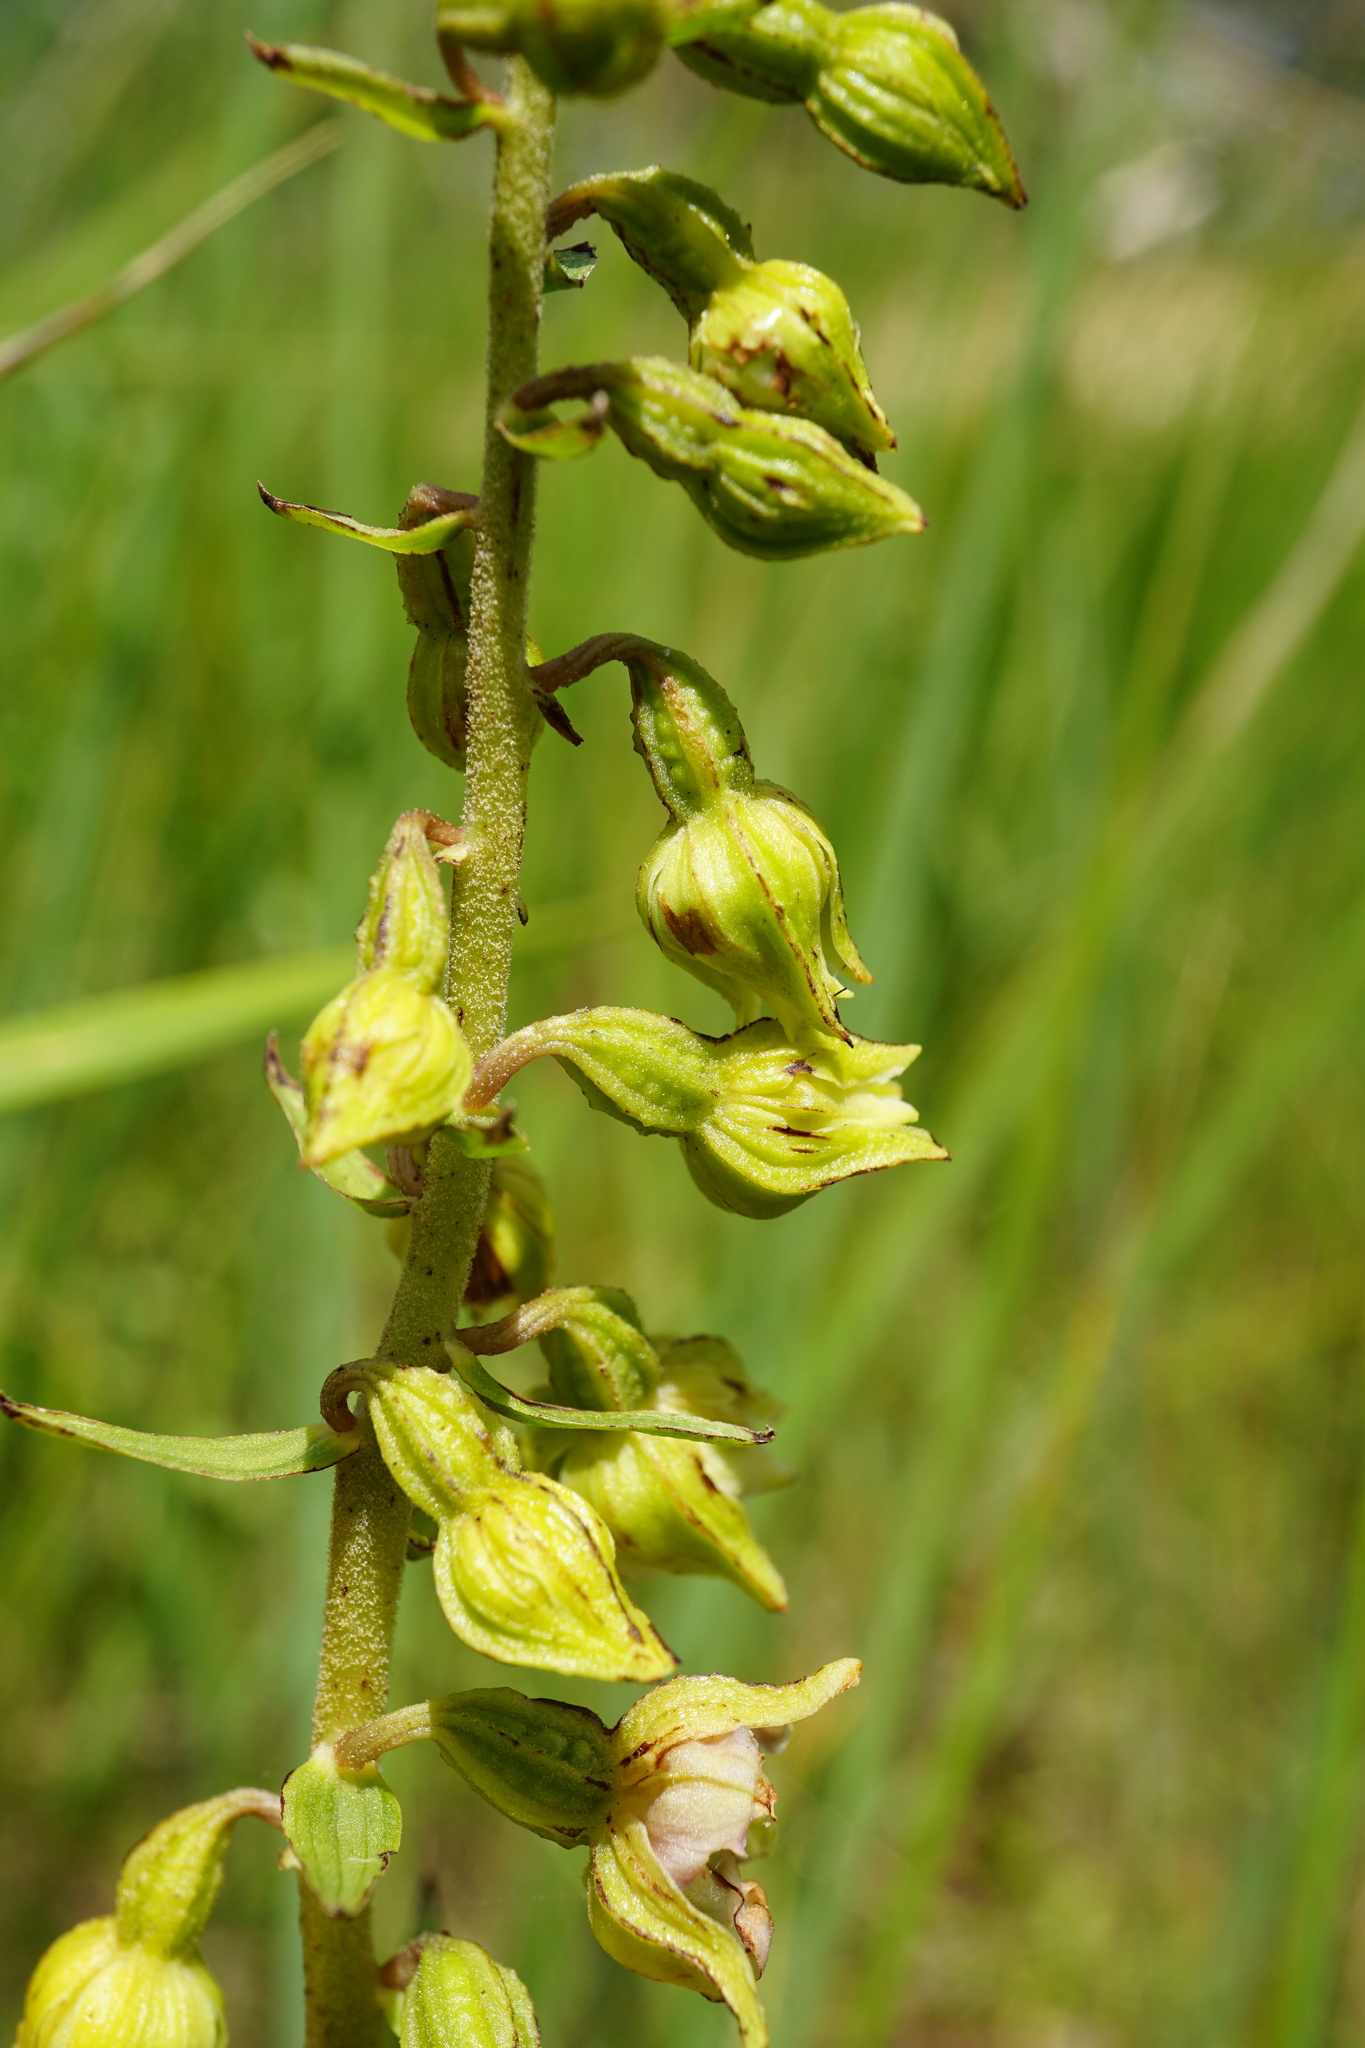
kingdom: Plantae
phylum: Tracheophyta
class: Liliopsida
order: Asparagales
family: Orchidaceae
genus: Epipactis
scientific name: Epipactis helleborine
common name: Broad-leaved helleborine
